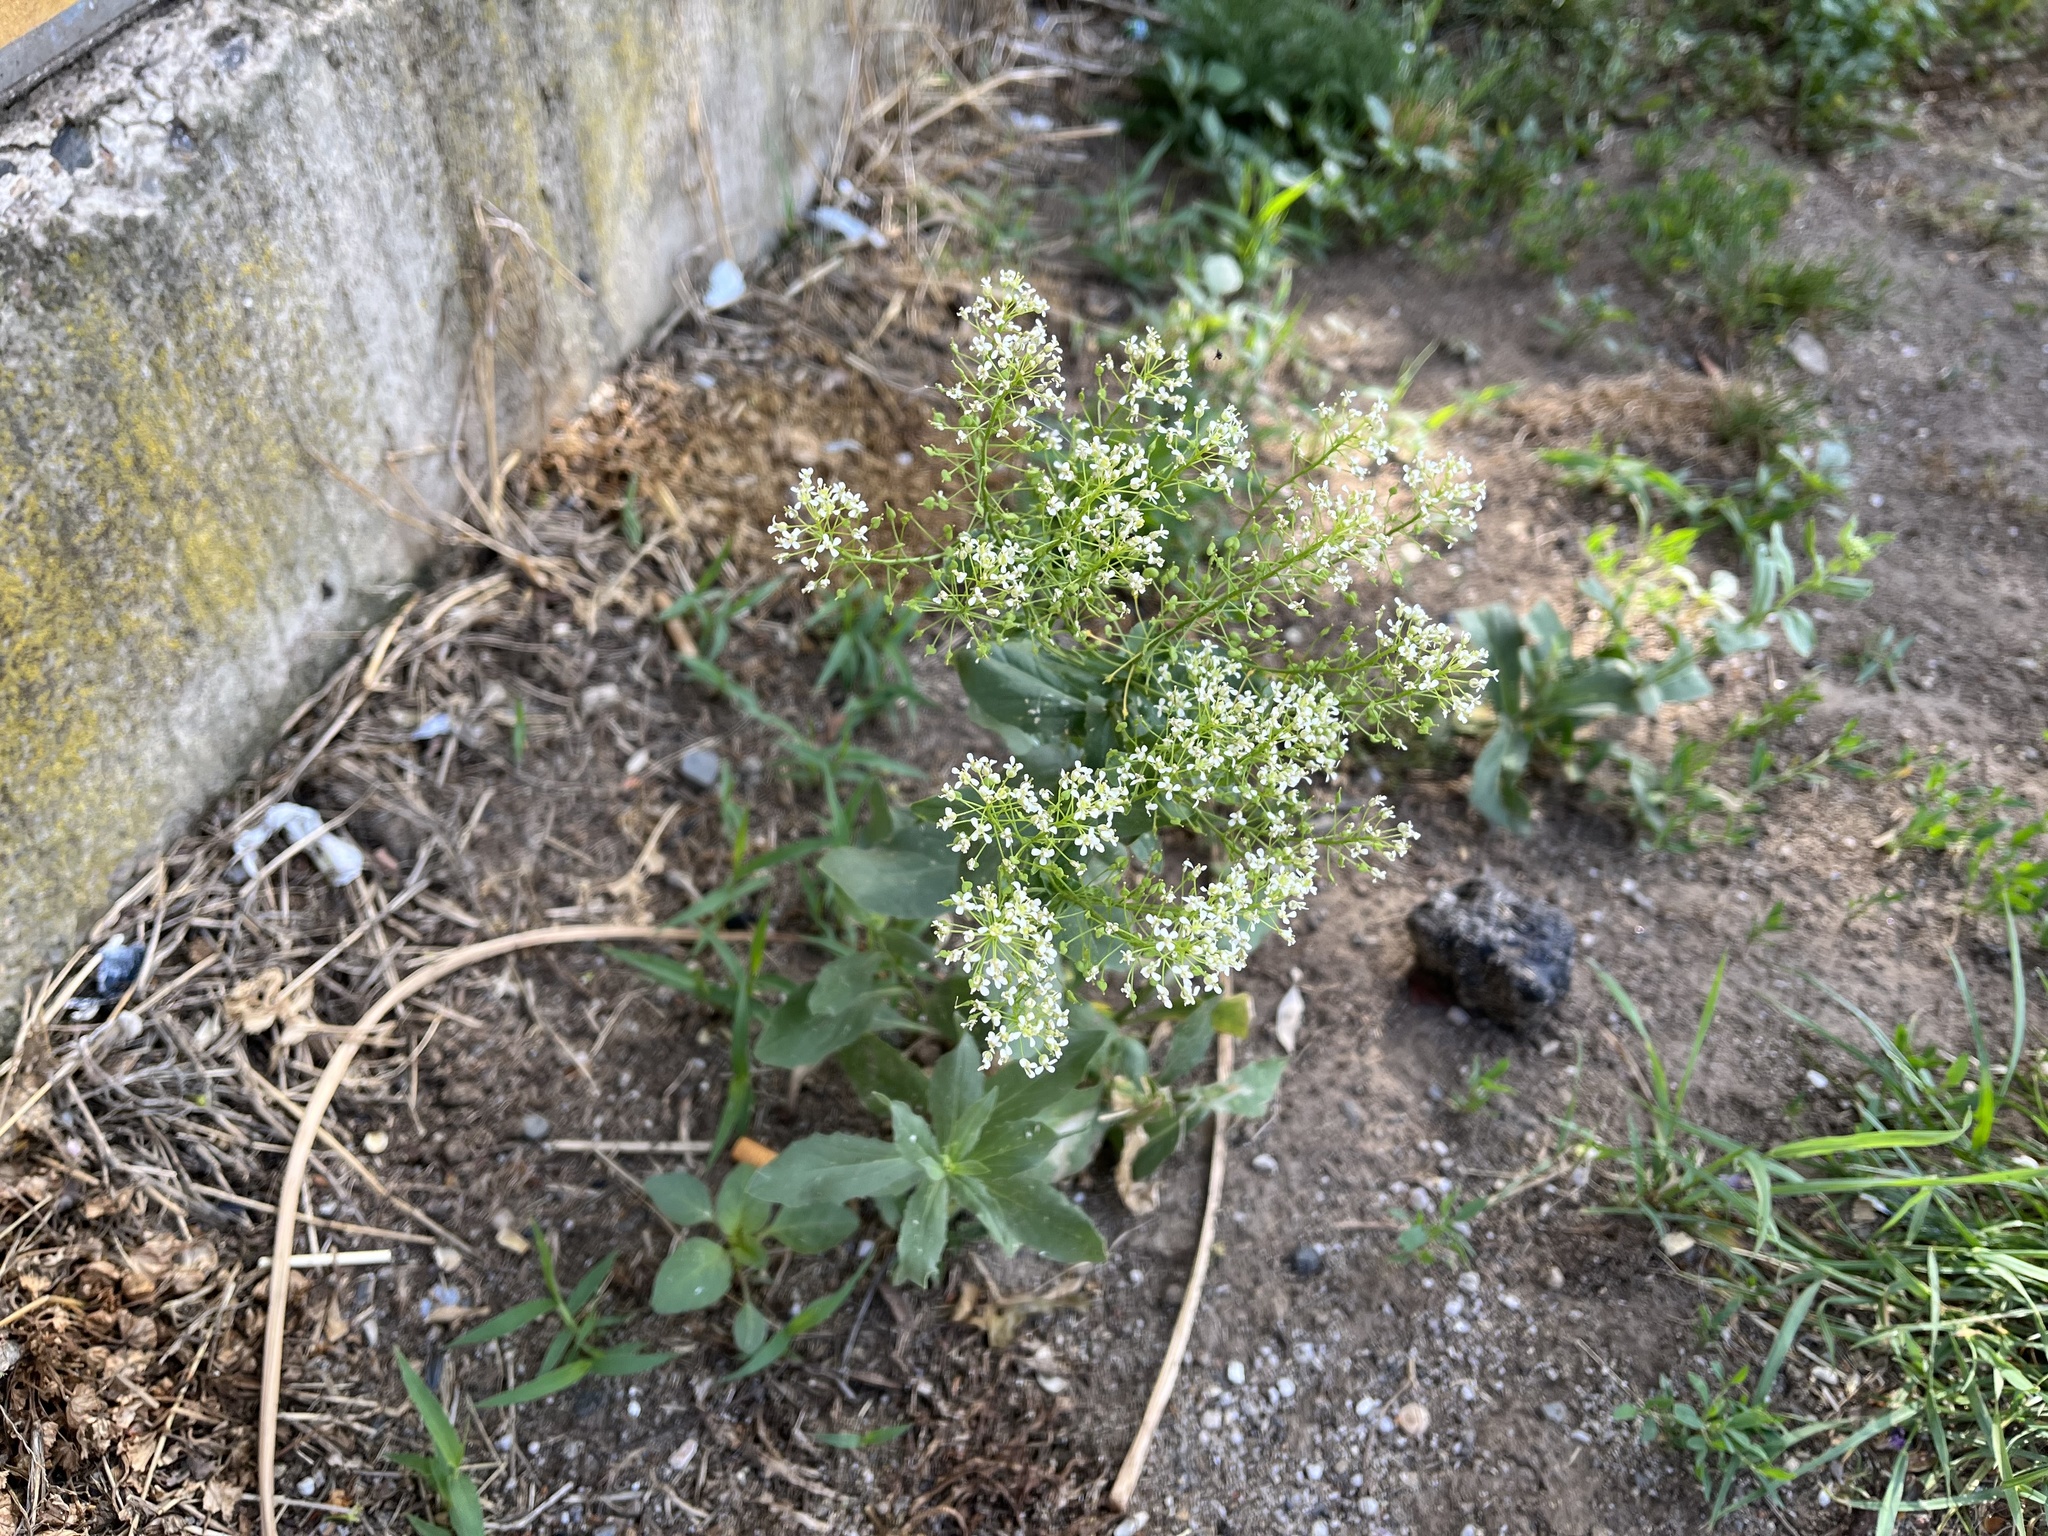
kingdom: Plantae
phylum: Tracheophyta
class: Magnoliopsida
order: Brassicales
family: Brassicaceae
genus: Lepidium
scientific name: Lepidium draba
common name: Hoary cress
